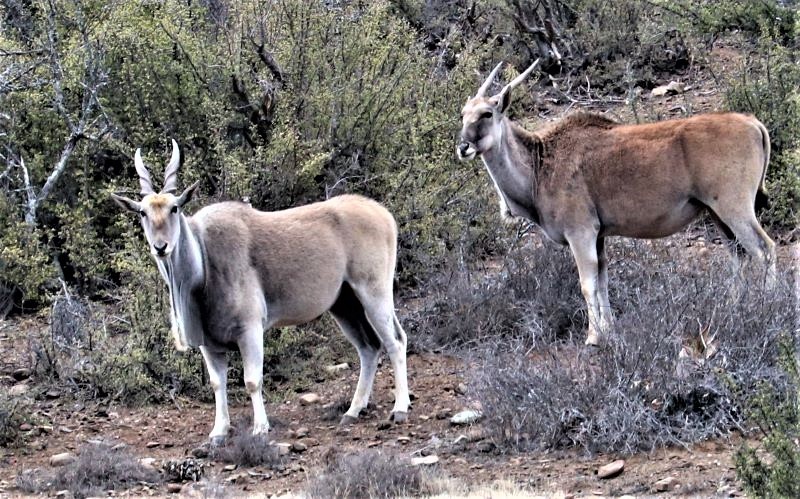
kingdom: Animalia
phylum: Chordata
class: Mammalia
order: Artiodactyla
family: Bovidae
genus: Taurotragus
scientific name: Taurotragus oryx
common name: Common eland
